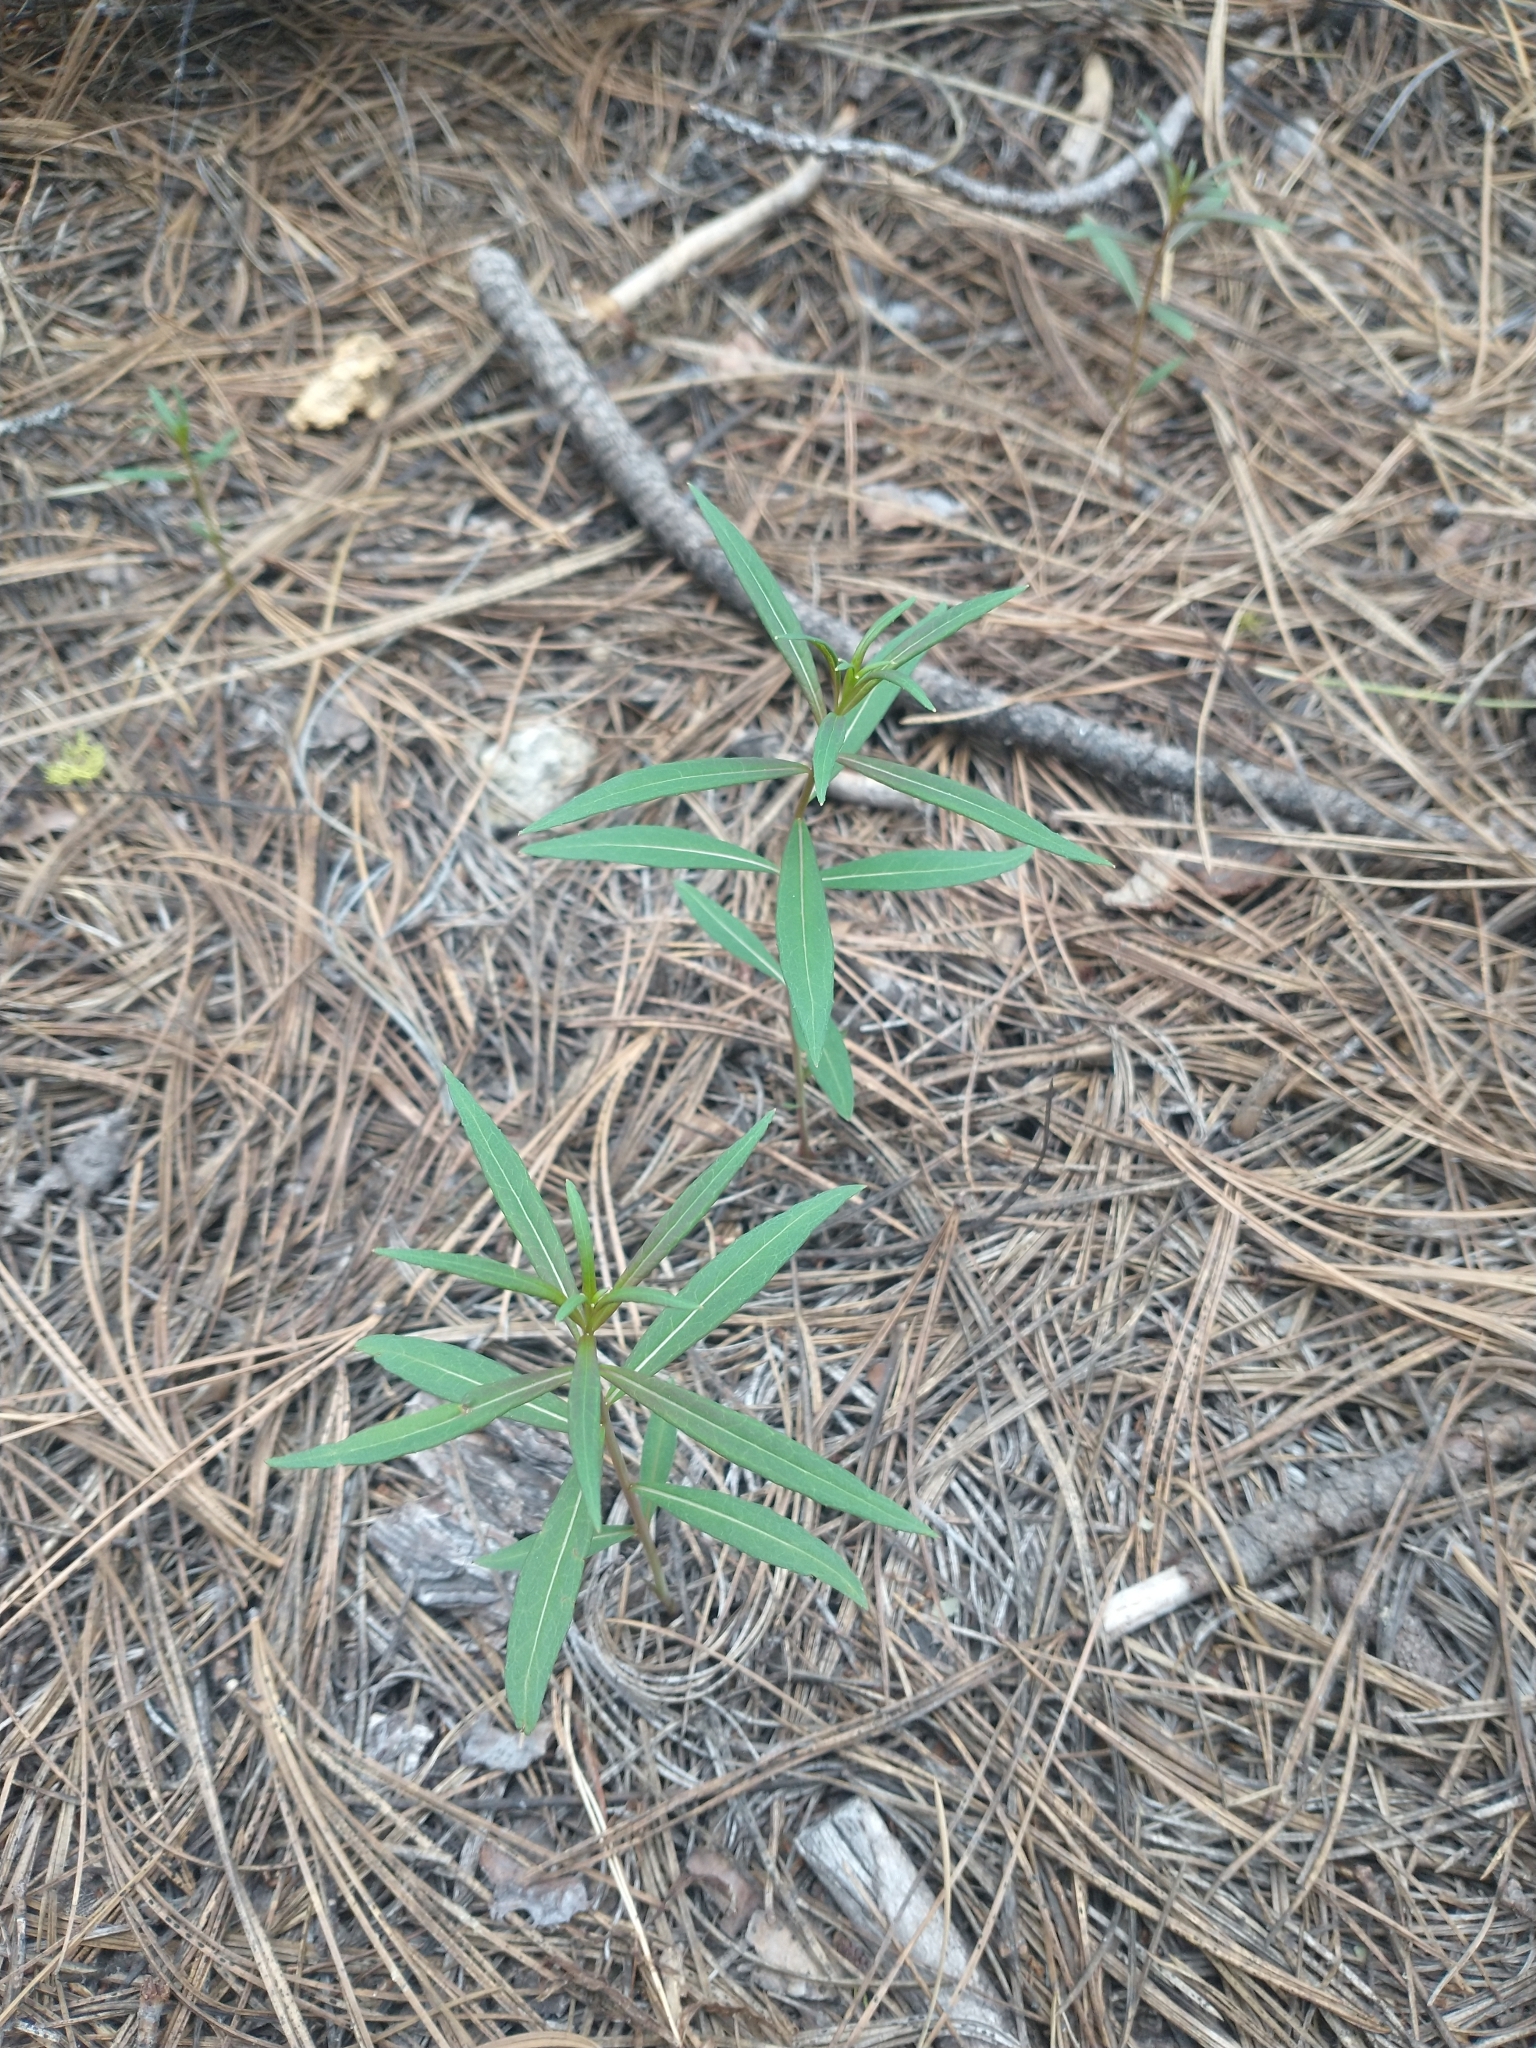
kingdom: Plantae
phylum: Tracheophyta
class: Magnoliopsida
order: Myrtales
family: Onagraceae
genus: Chamaenerion
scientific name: Chamaenerion angustifolium
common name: Fireweed
